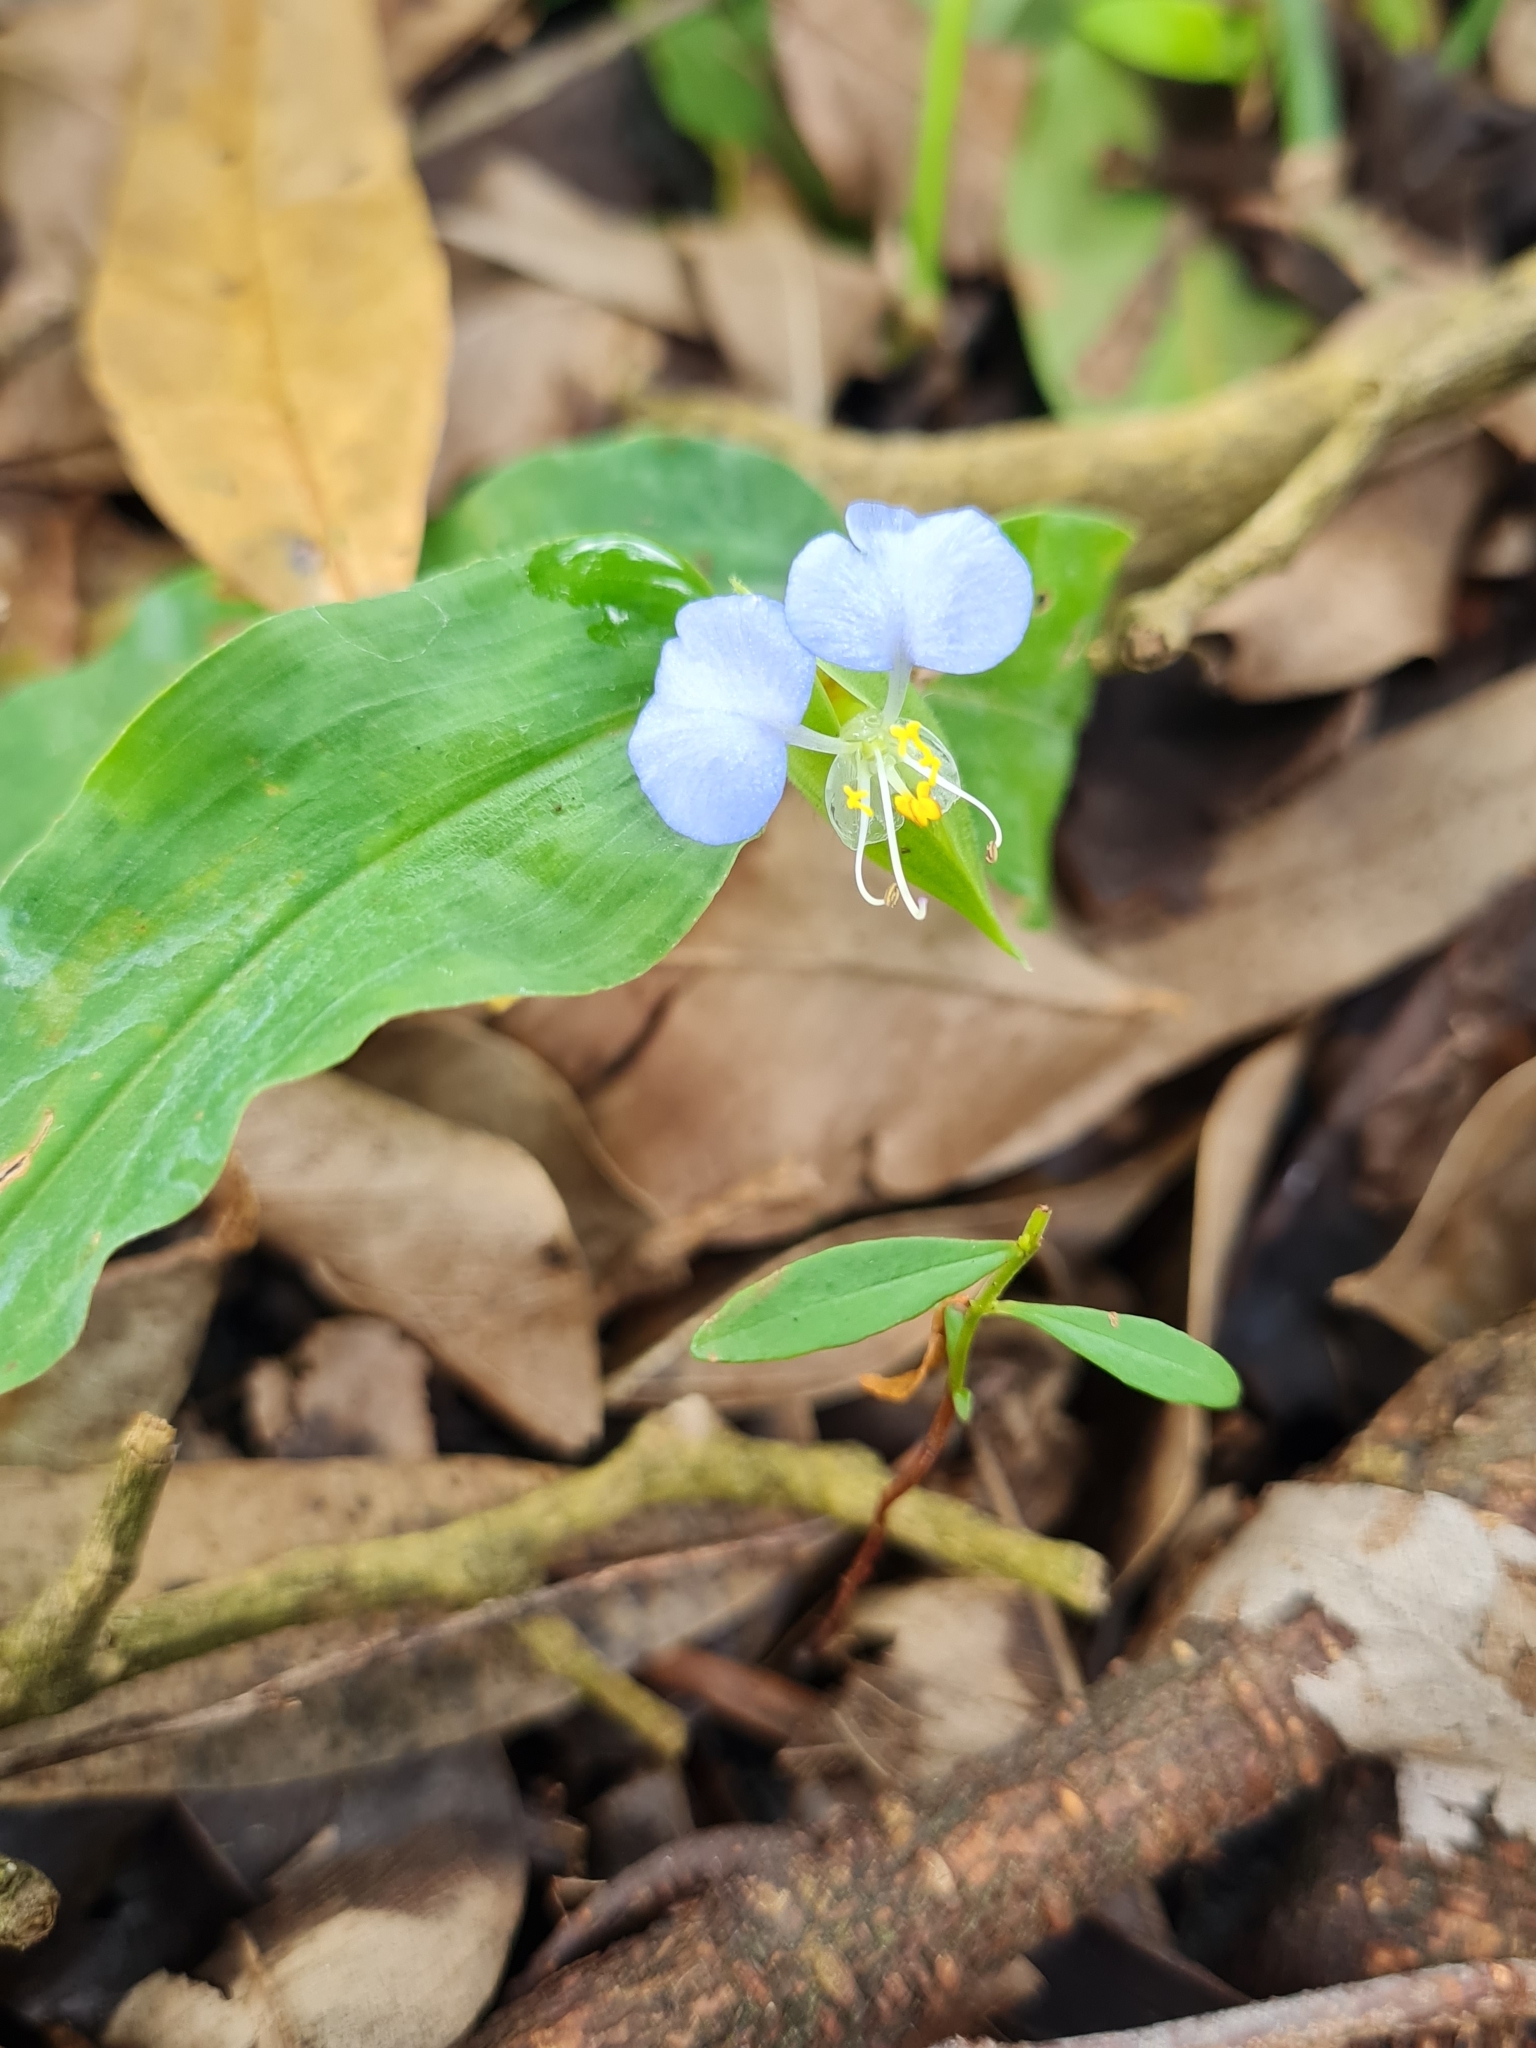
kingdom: Plantae
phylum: Tracheophyta
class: Liliopsida
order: Commelinales
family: Commelinaceae
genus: Commelina
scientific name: Commelina erecta
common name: Blousel blommetjie
